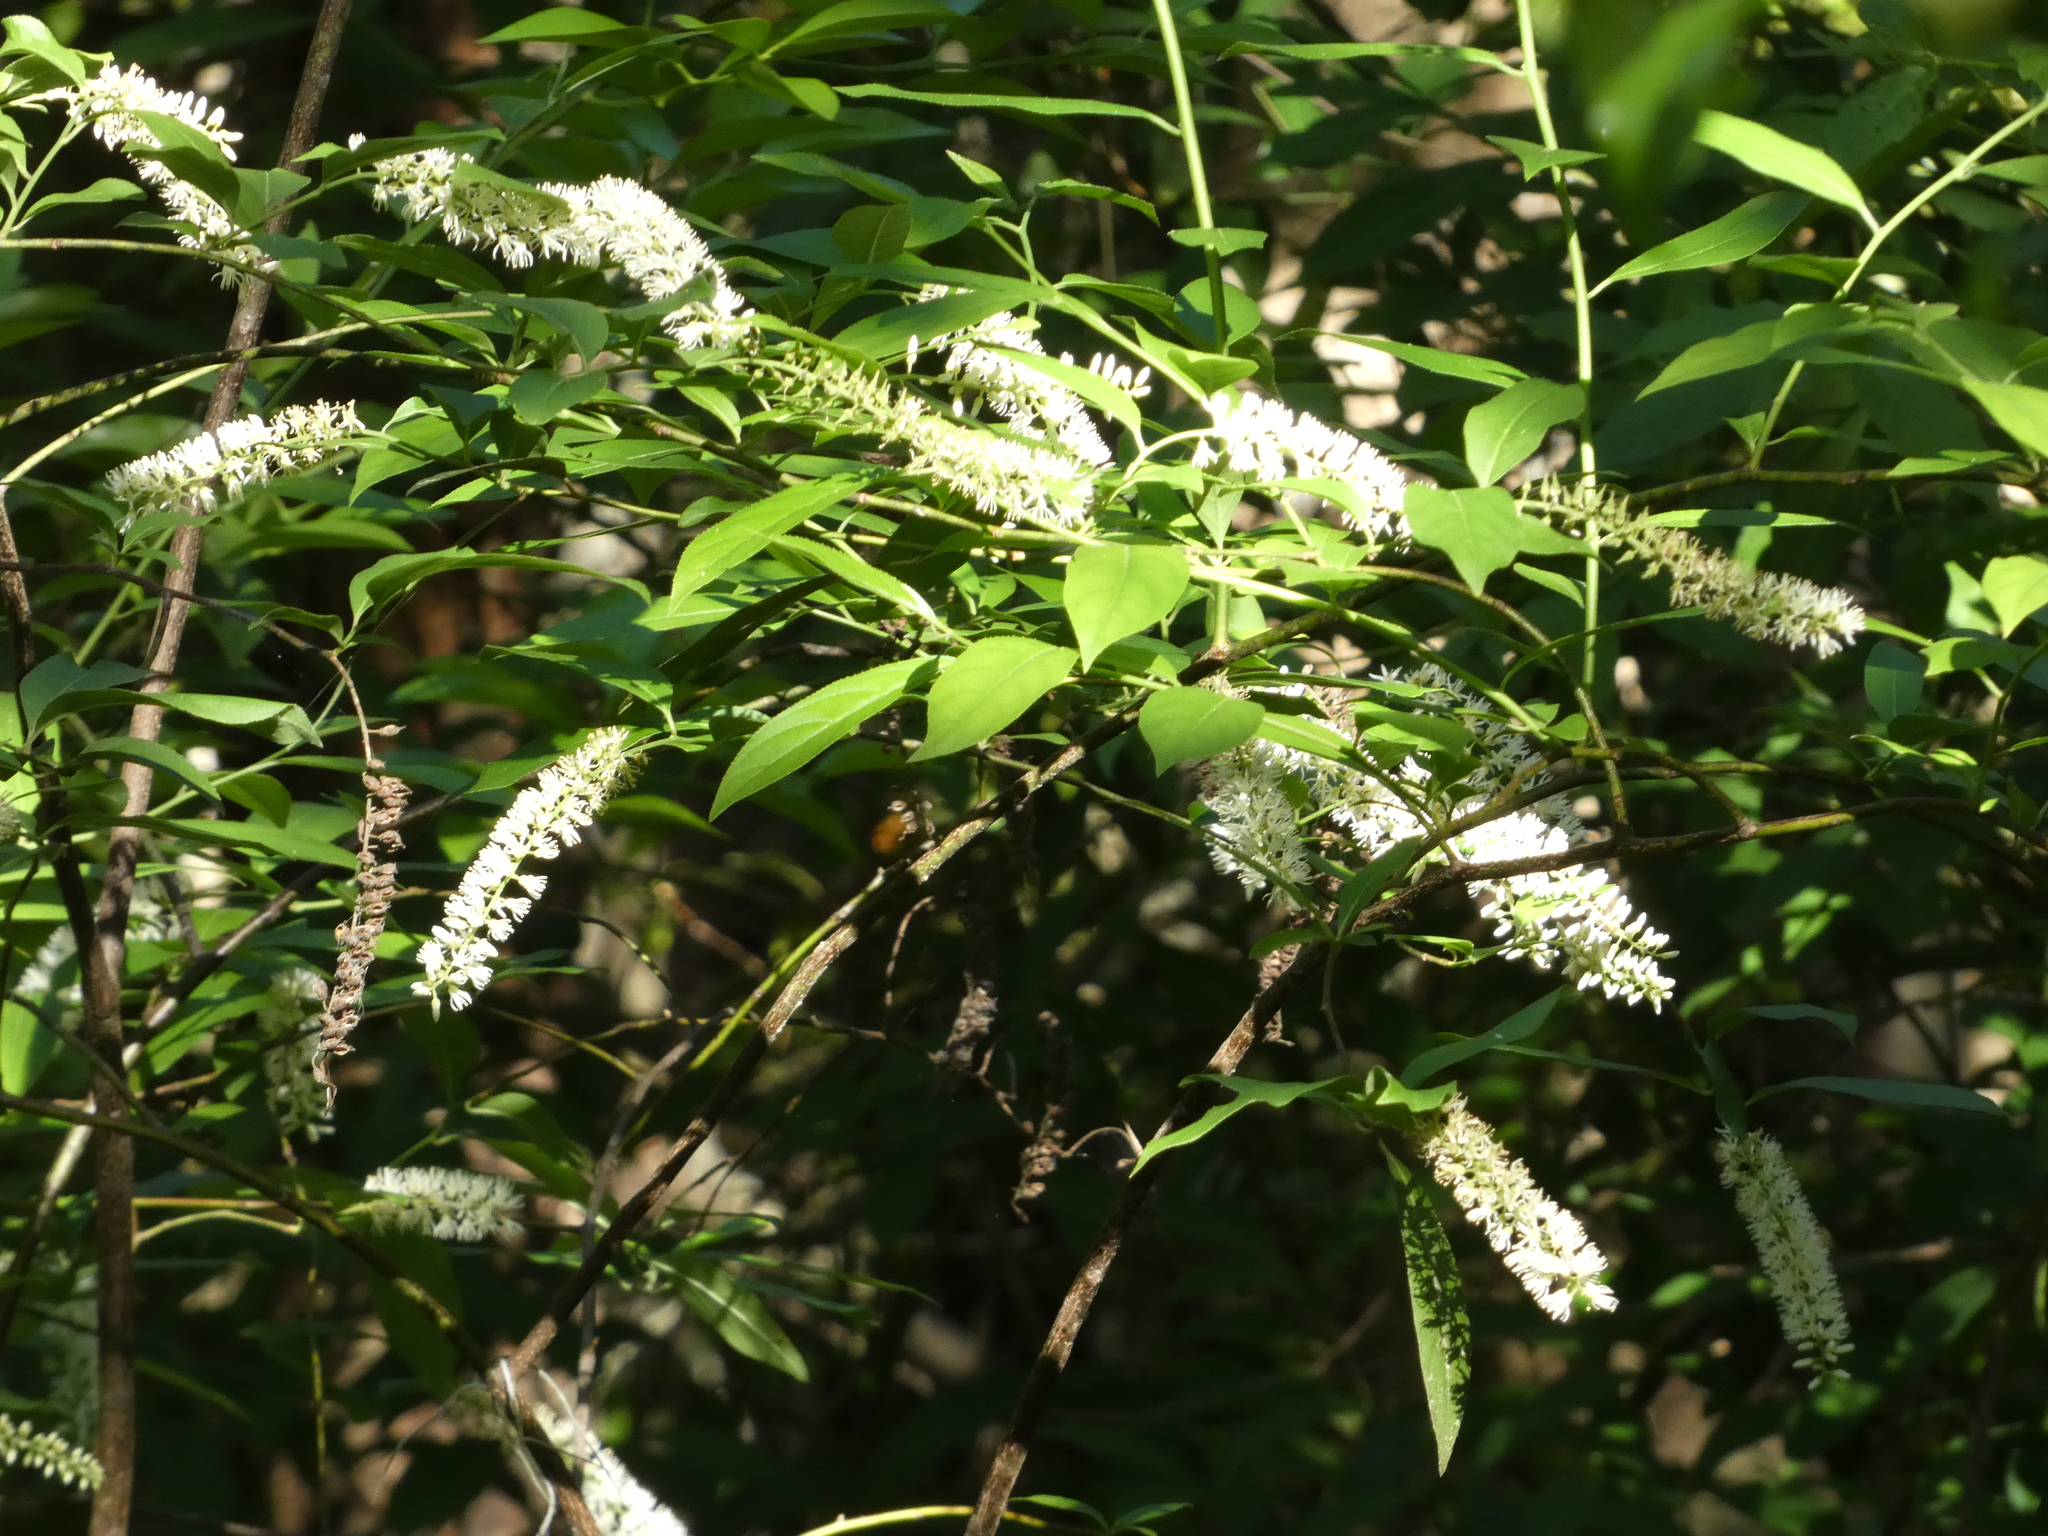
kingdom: Plantae
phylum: Tracheophyta
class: Magnoliopsida
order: Saxifragales
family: Iteaceae
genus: Itea
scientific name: Itea virginica
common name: Sweetspire
